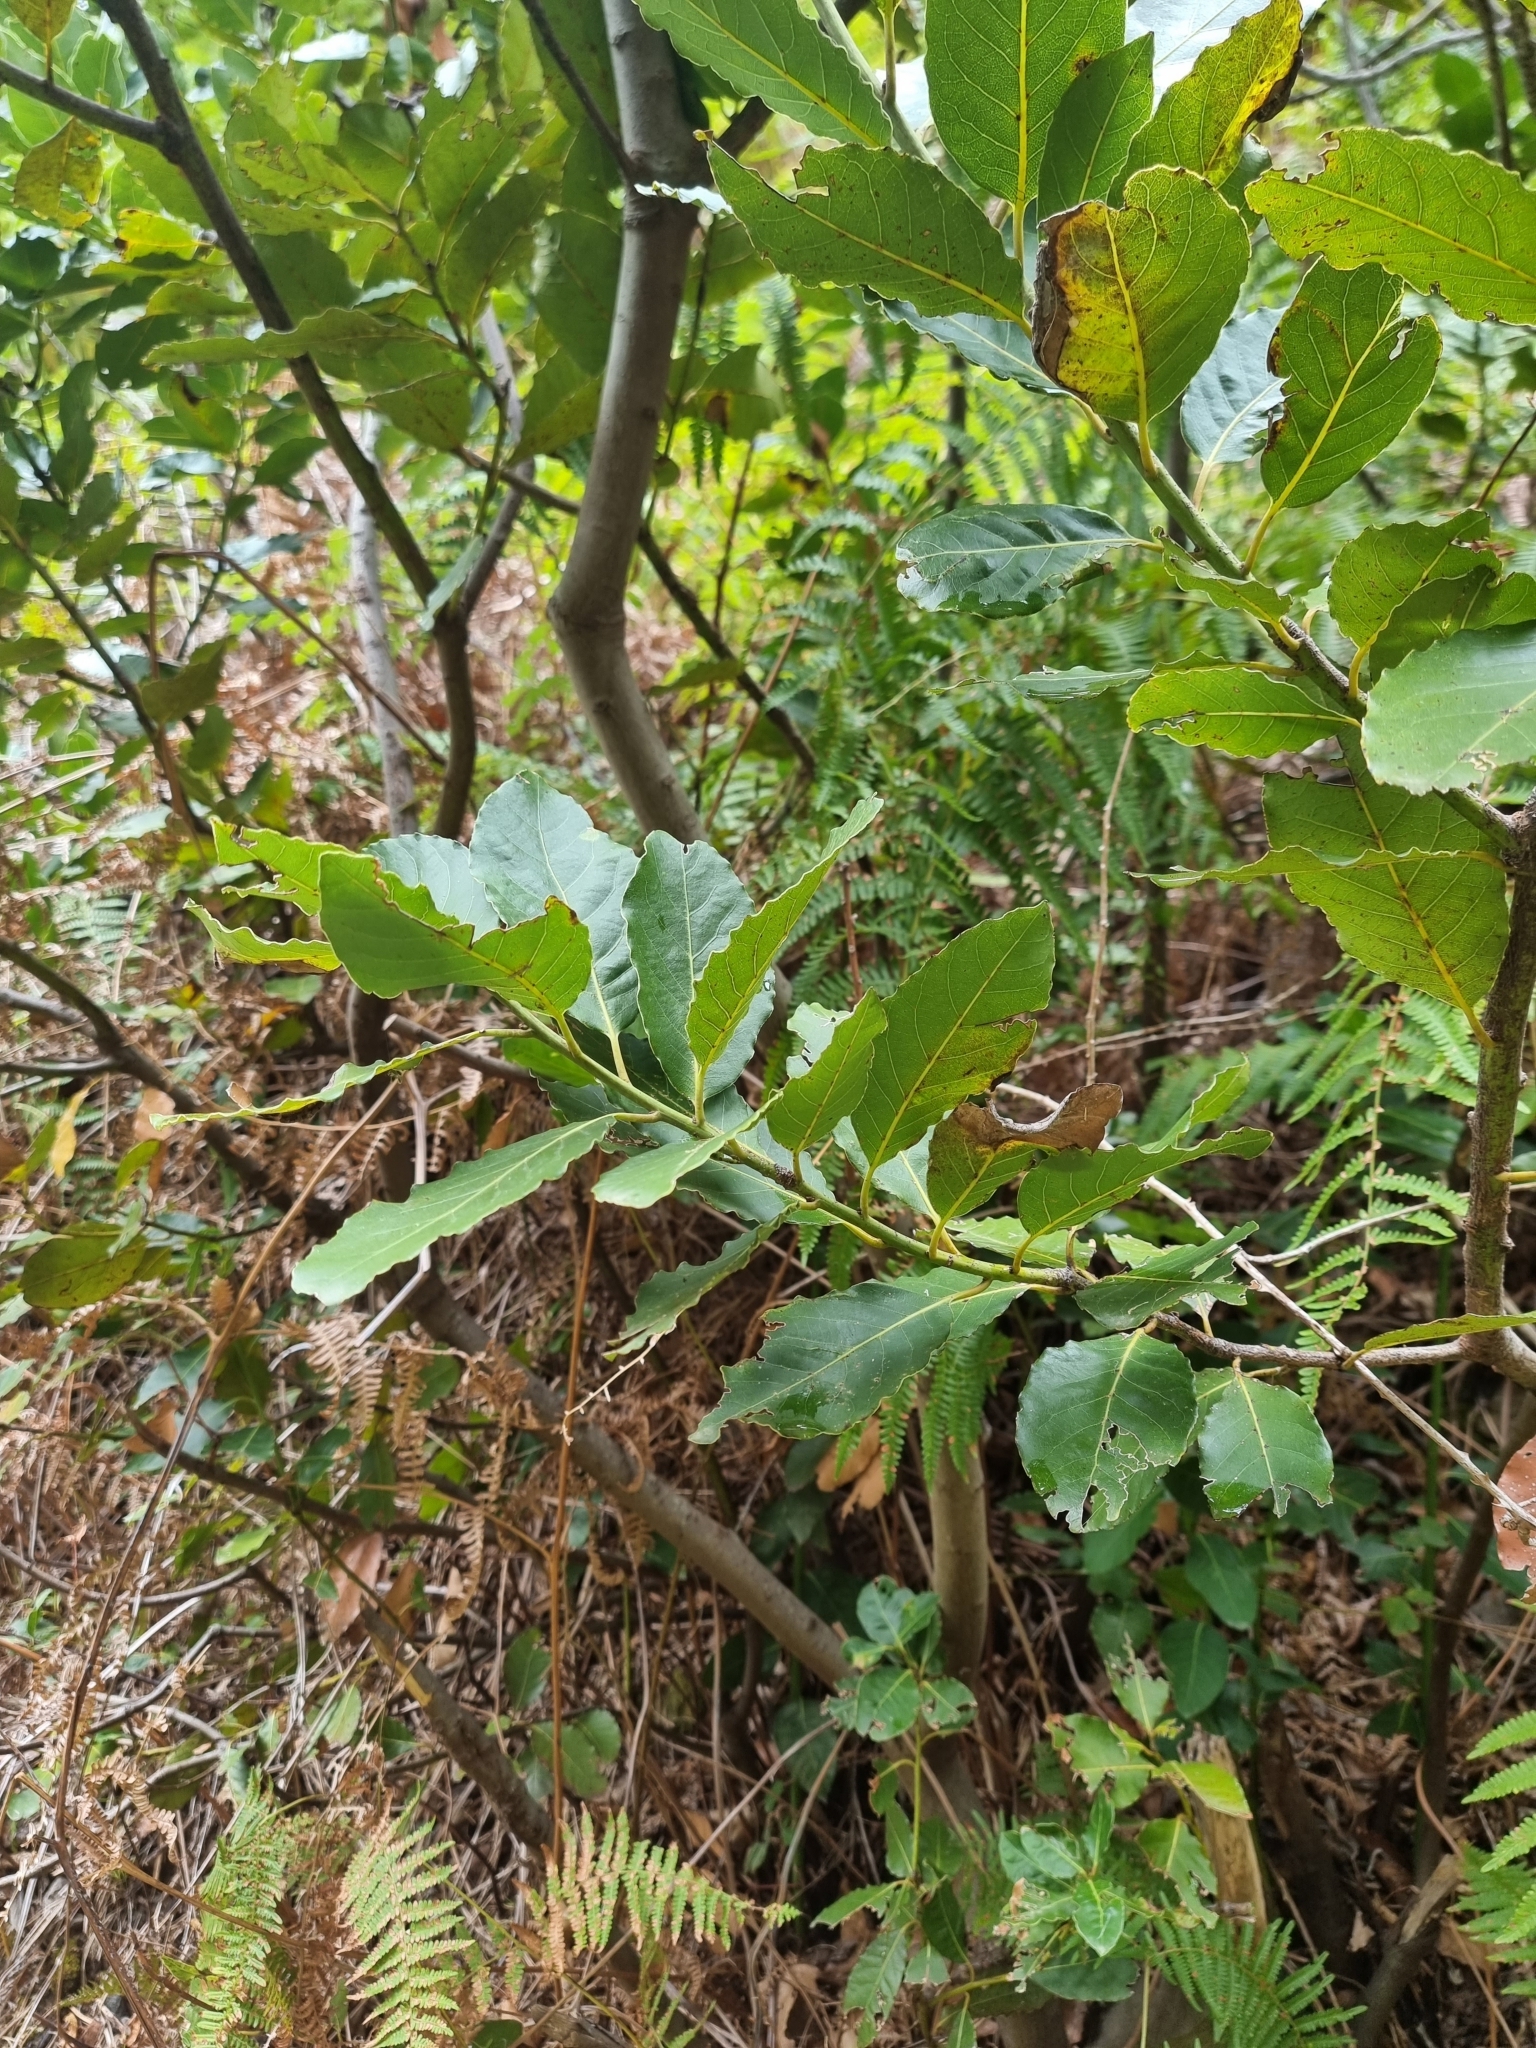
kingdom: Plantae
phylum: Tracheophyta
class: Magnoliopsida
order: Laurales
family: Lauraceae
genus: Laurus
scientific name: Laurus novocanariensis
